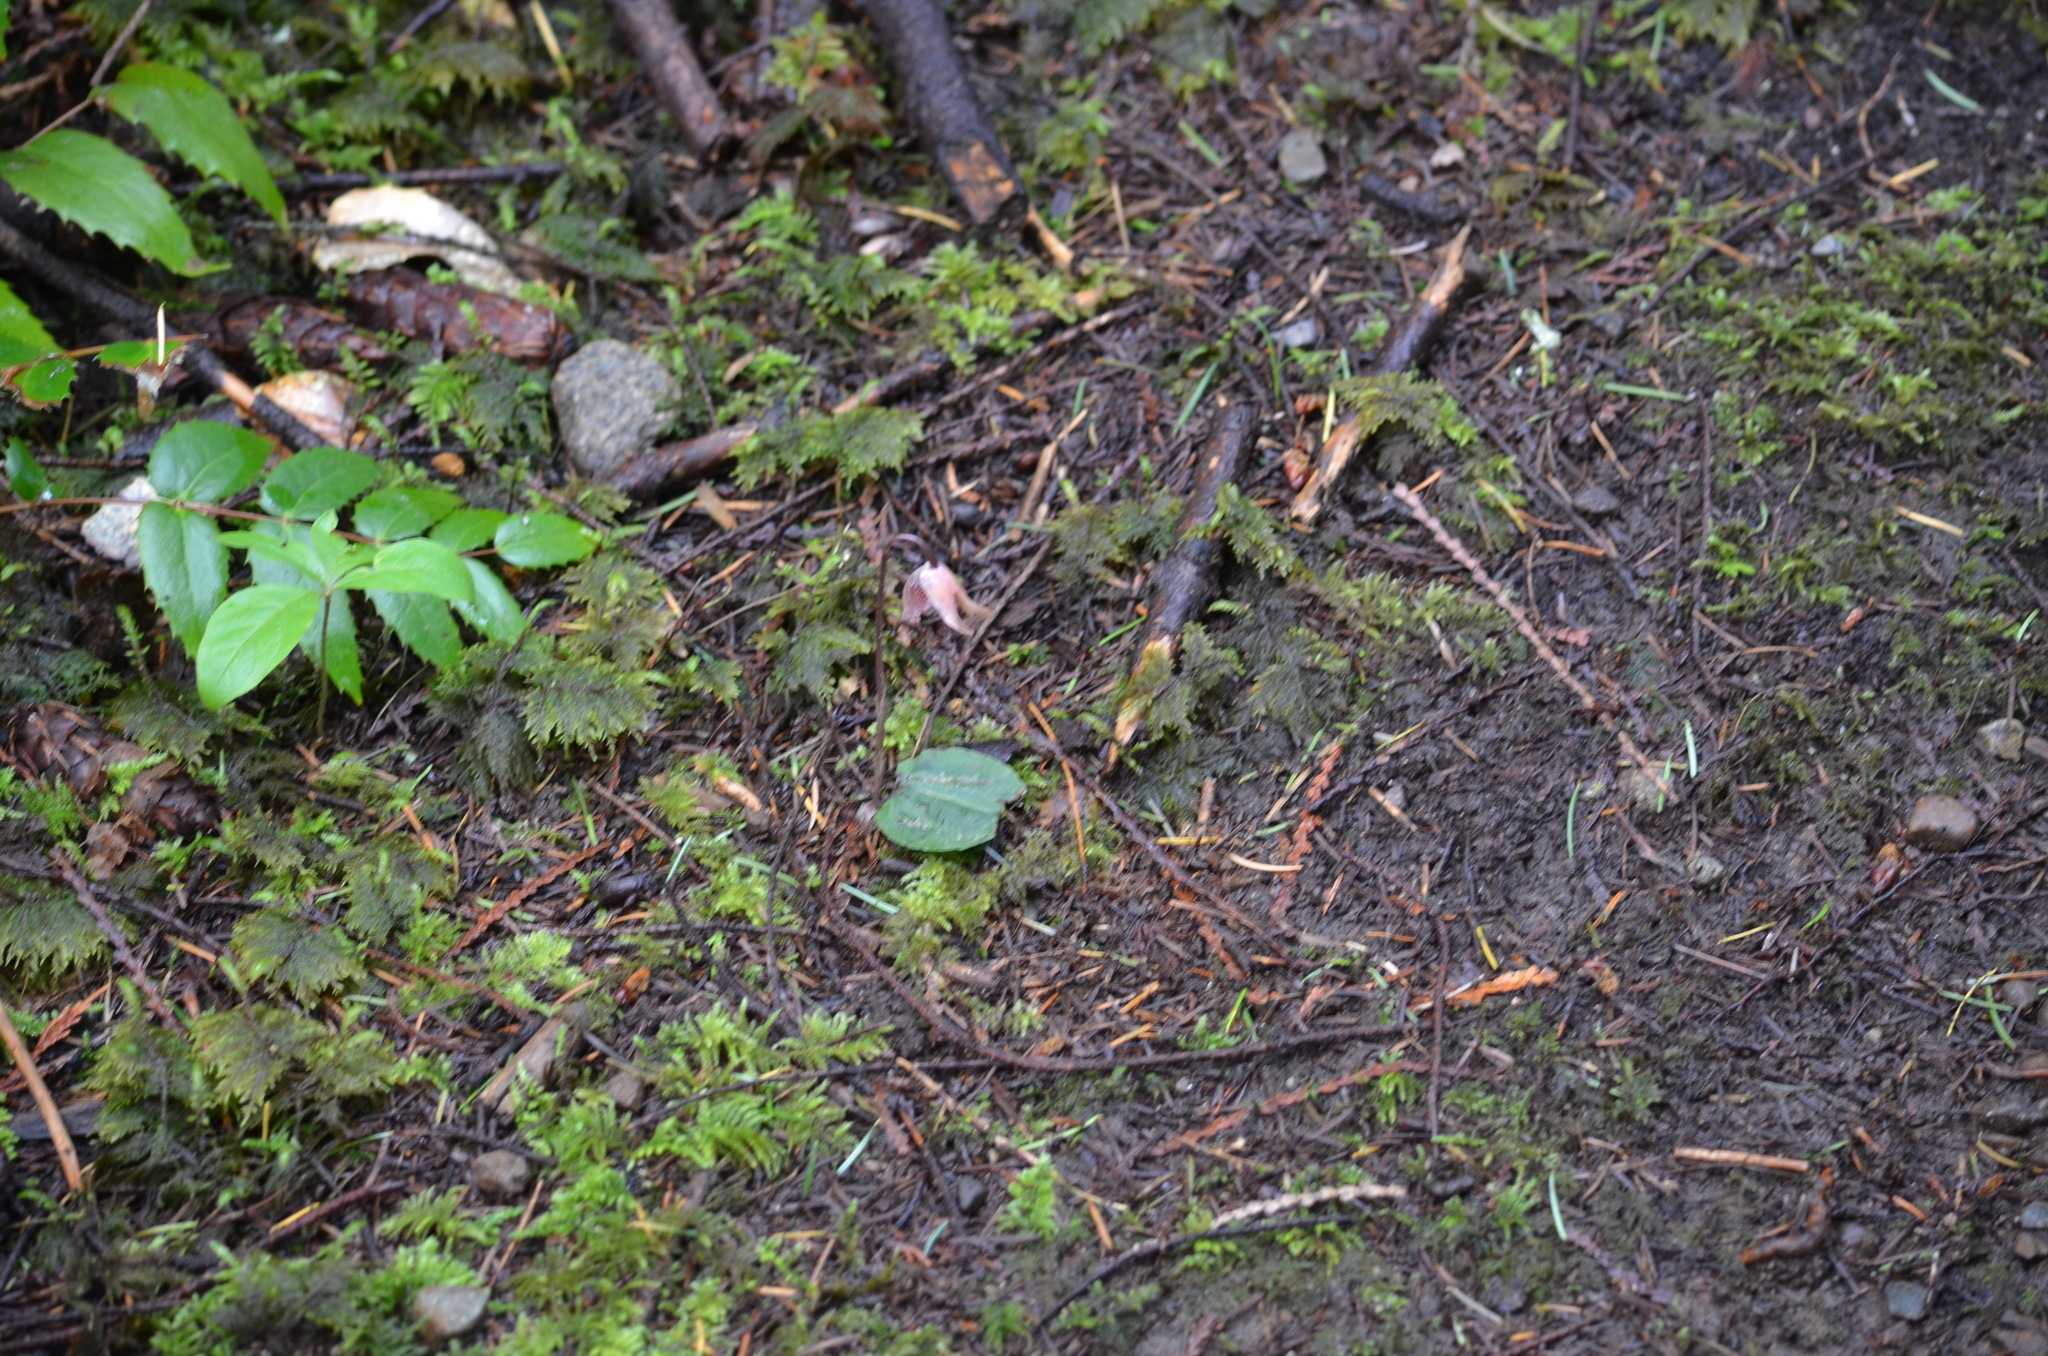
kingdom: Plantae
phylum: Tracheophyta
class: Liliopsida
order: Asparagales
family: Orchidaceae
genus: Calypso
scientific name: Calypso bulbosa
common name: Calypso
